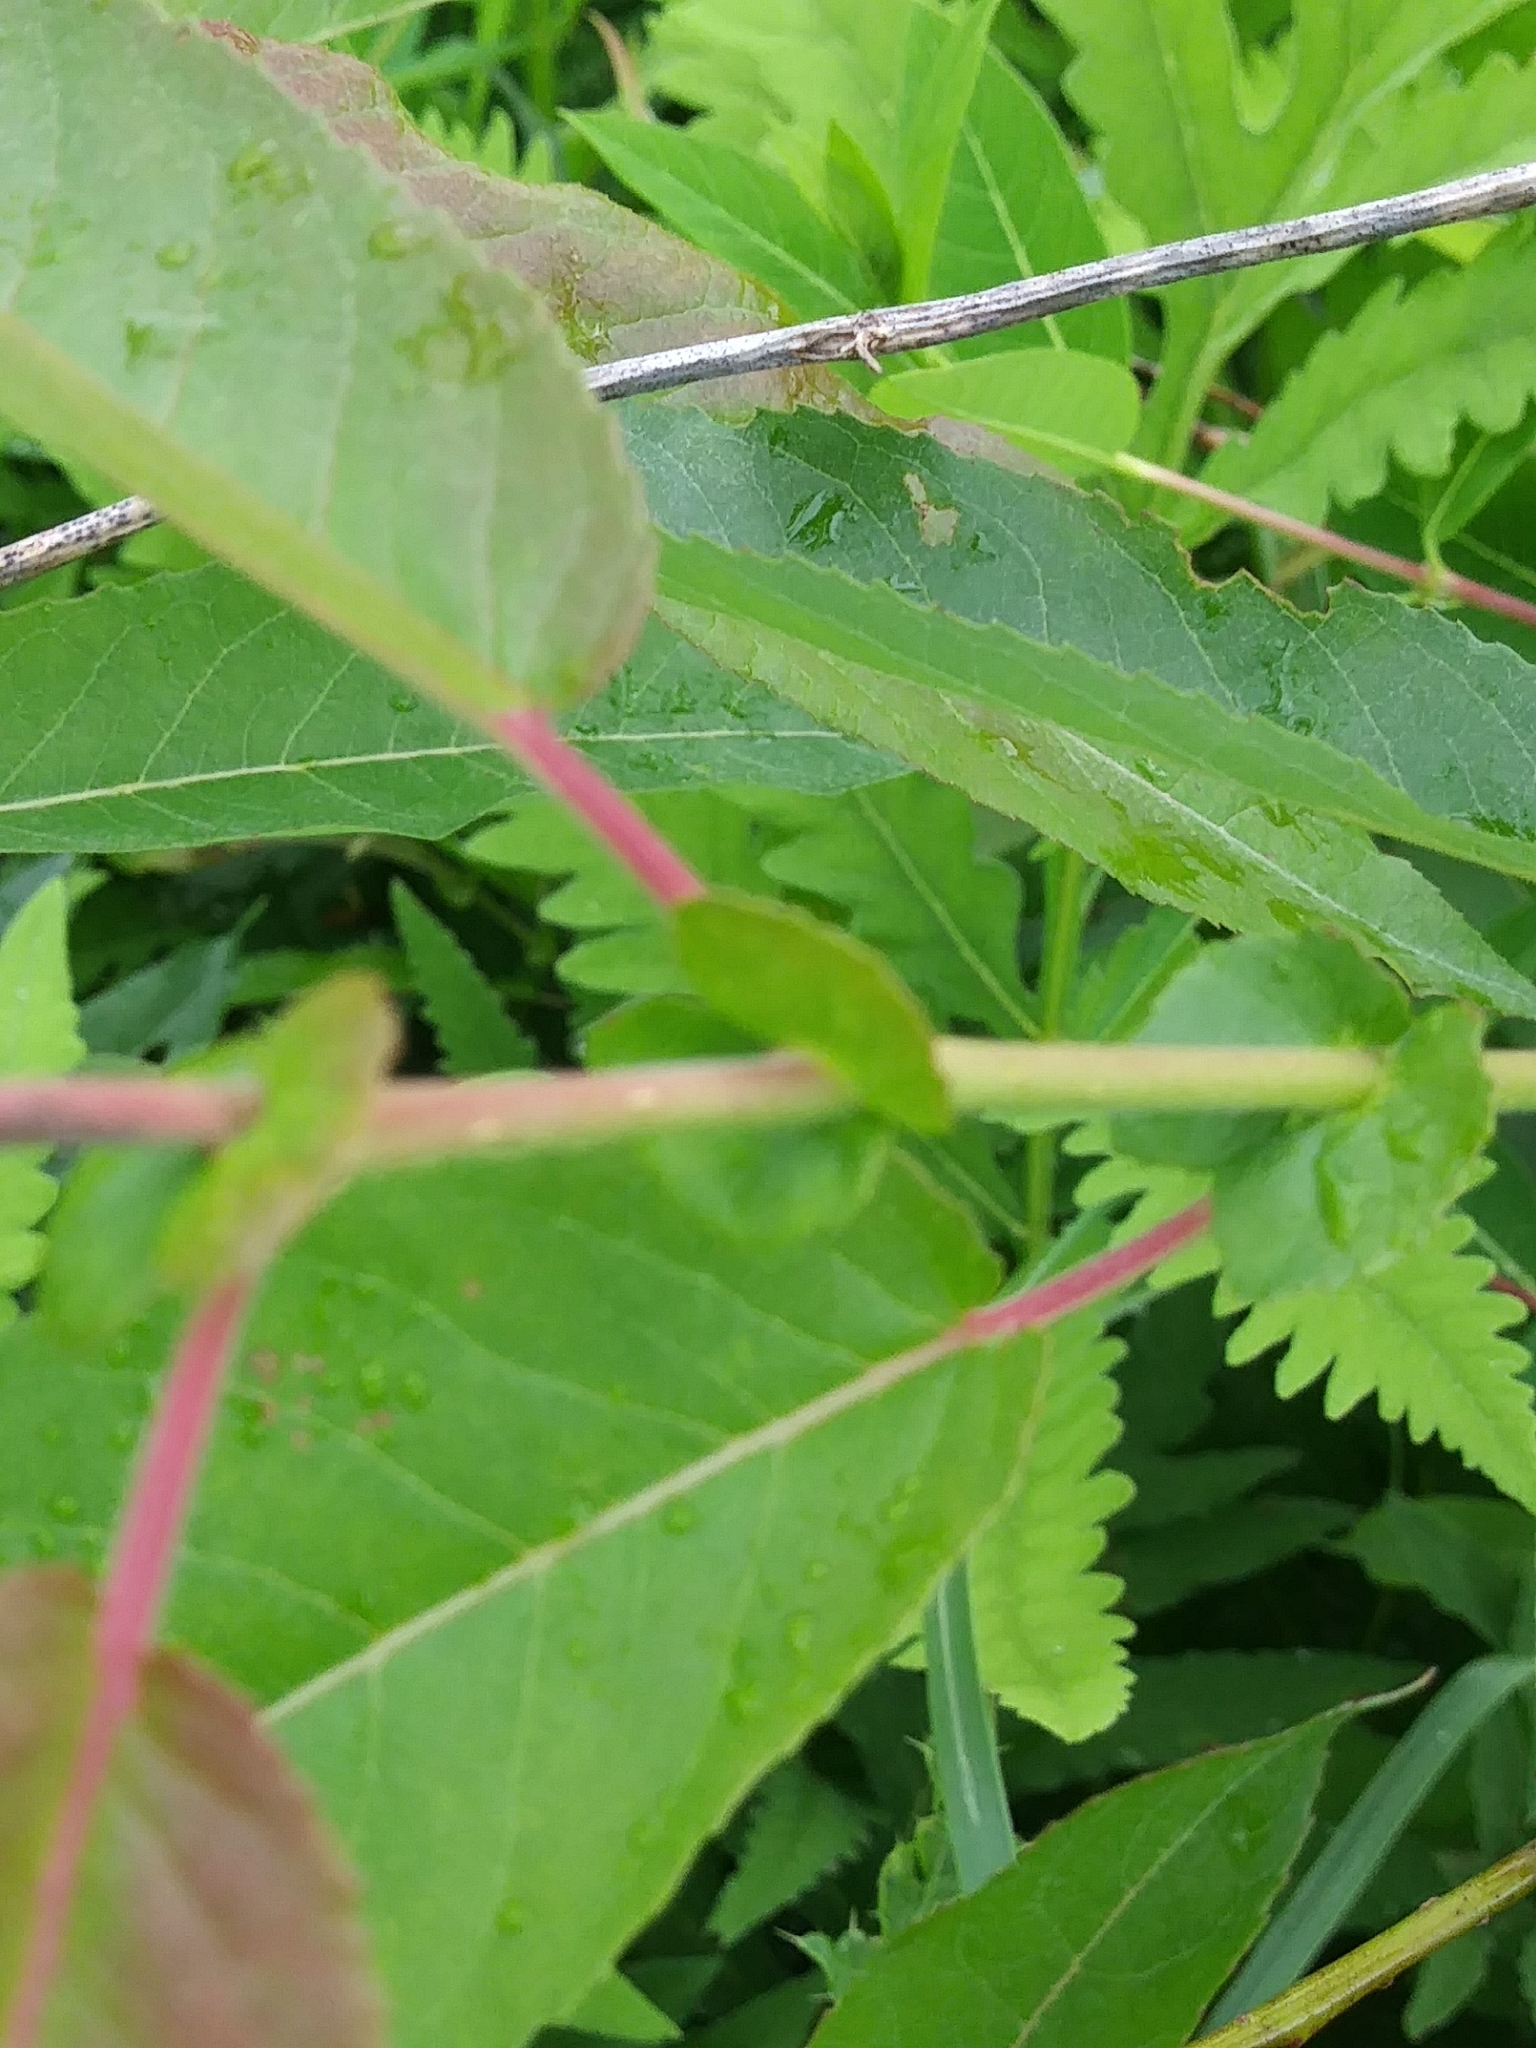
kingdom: Plantae
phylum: Tracheophyta
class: Magnoliopsida
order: Malpighiales
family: Salicaceae
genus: Salix
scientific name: Salix eriocephala
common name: Heart-leaved willow
